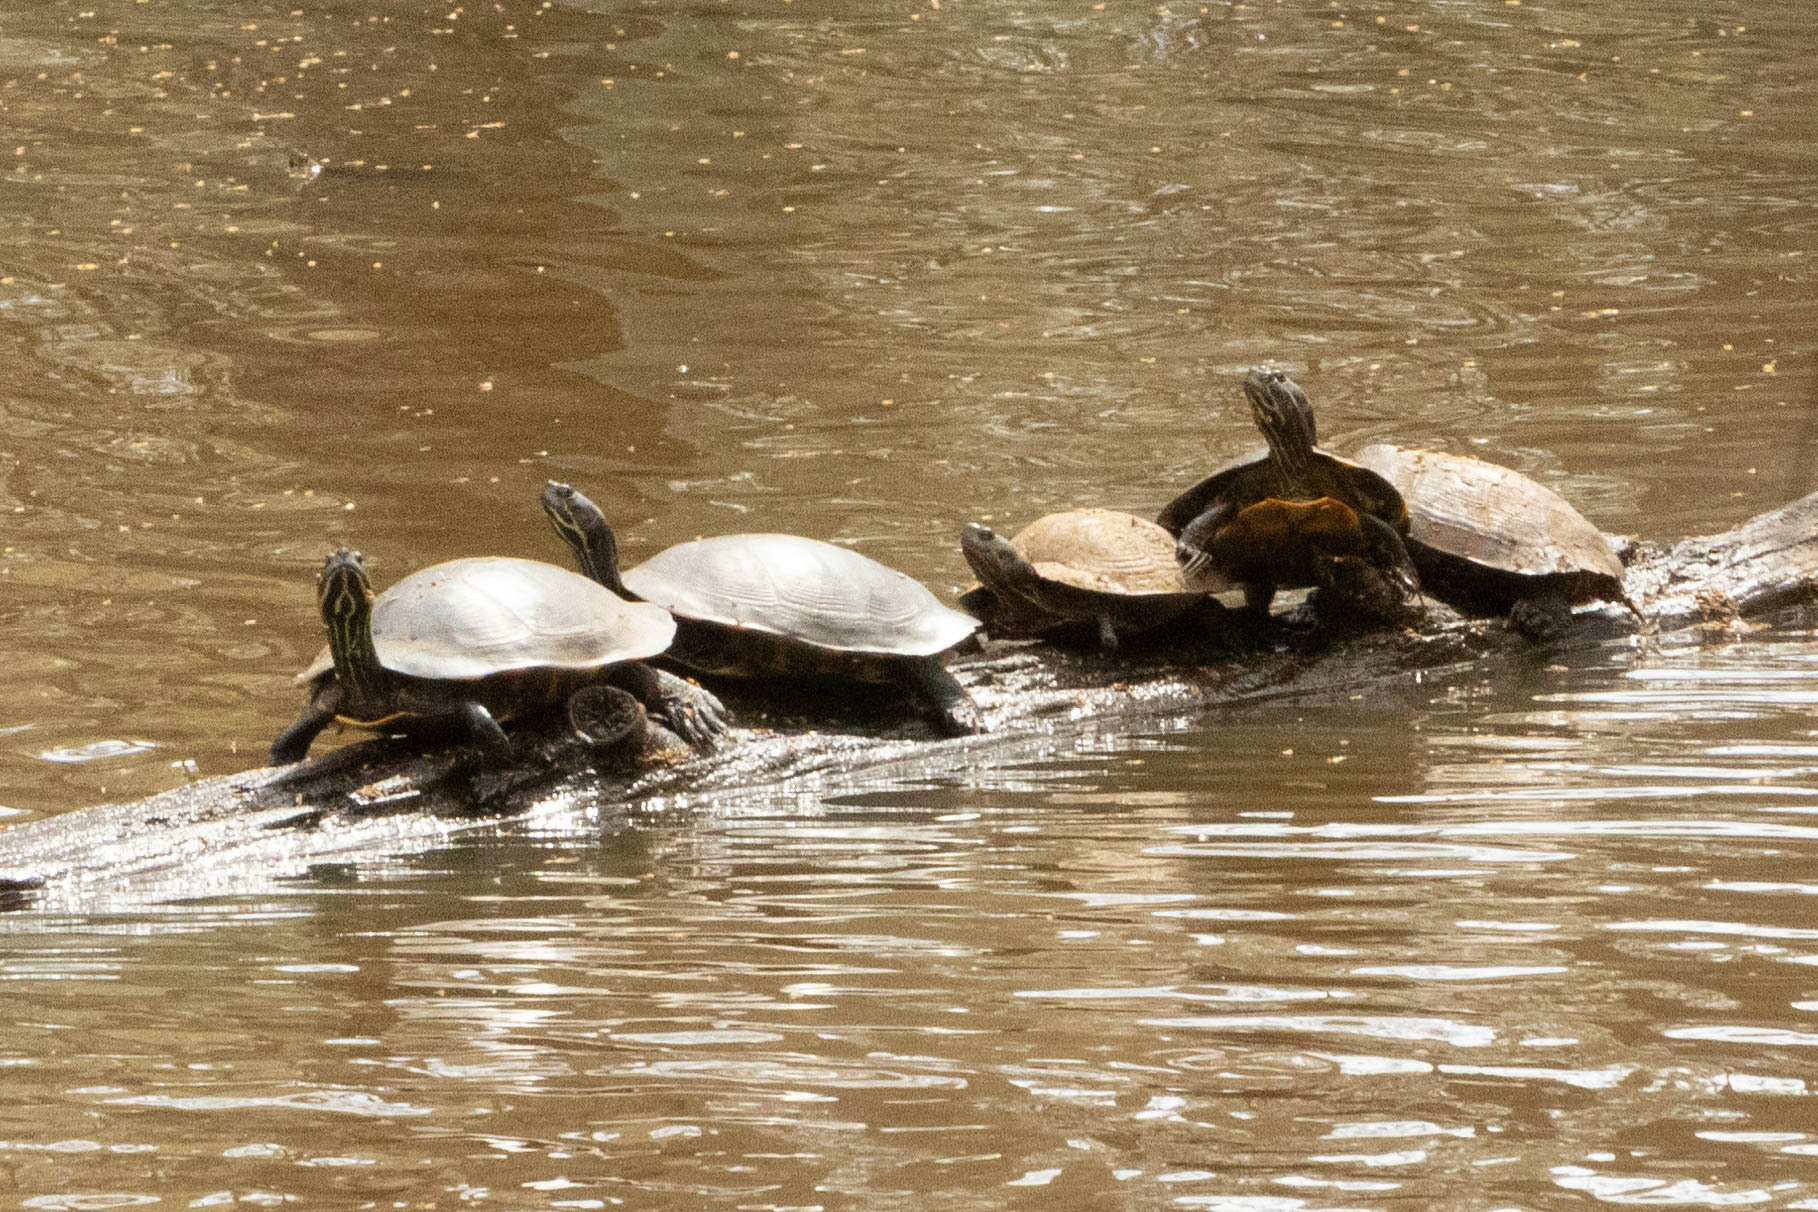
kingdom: Animalia
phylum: Chordata
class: Testudines
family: Emydidae
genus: Pseudemys
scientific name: Pseudemys concinna
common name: Eastern river cooter
